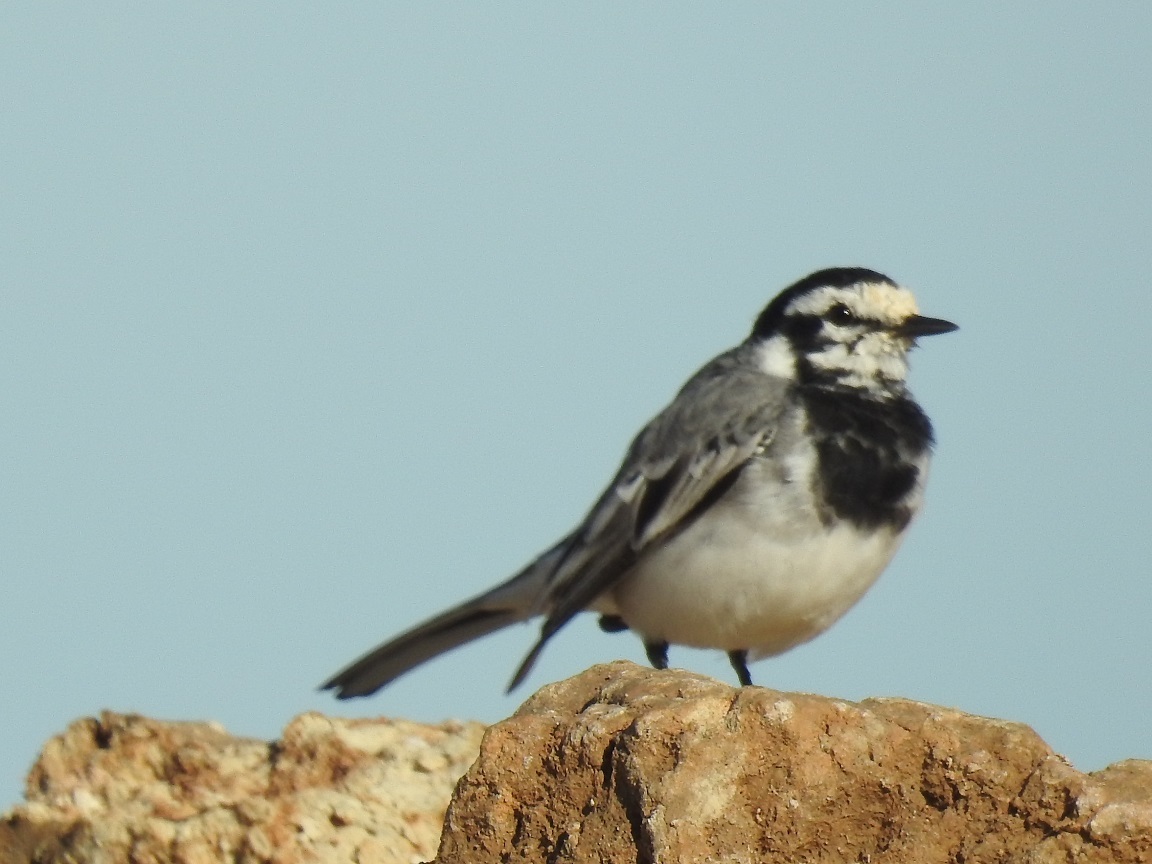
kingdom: Animalia
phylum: Chordata
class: Aves
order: Passeriformes
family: Motacillidae
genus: Motacilla
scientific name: Motacilla alba
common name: White wagtail
